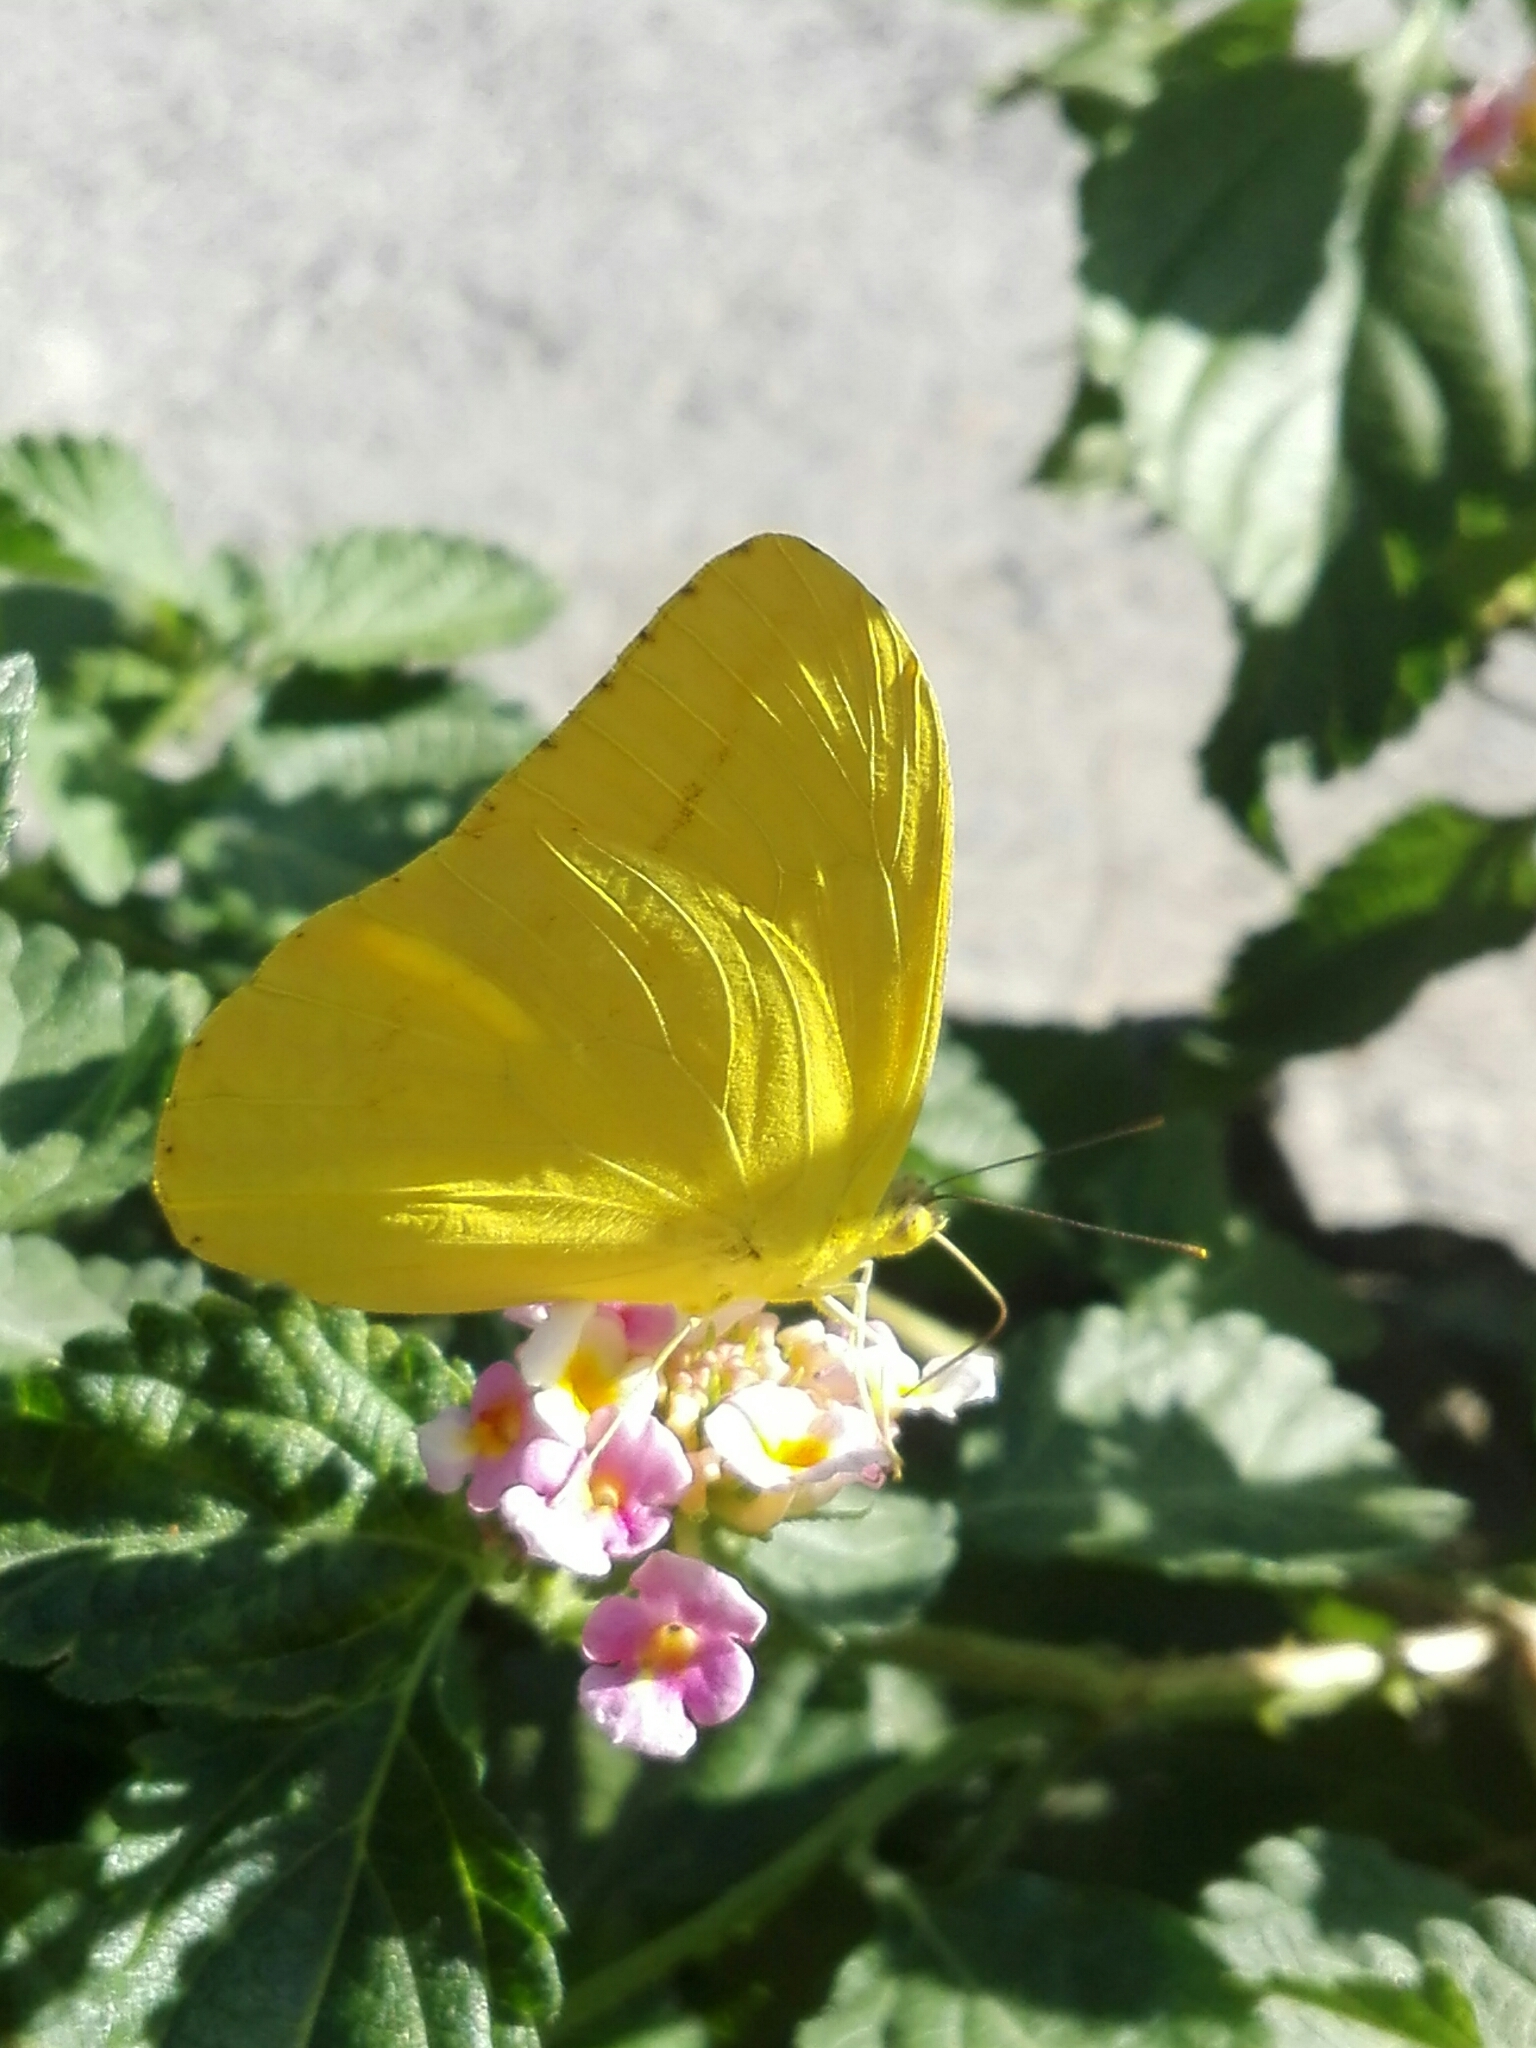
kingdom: Animalia
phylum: Arthropoda
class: Insecta
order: Lepidoptera
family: Pieridae
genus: Phoebis
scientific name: Phoebis agarithe
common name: Large orange sulphur
